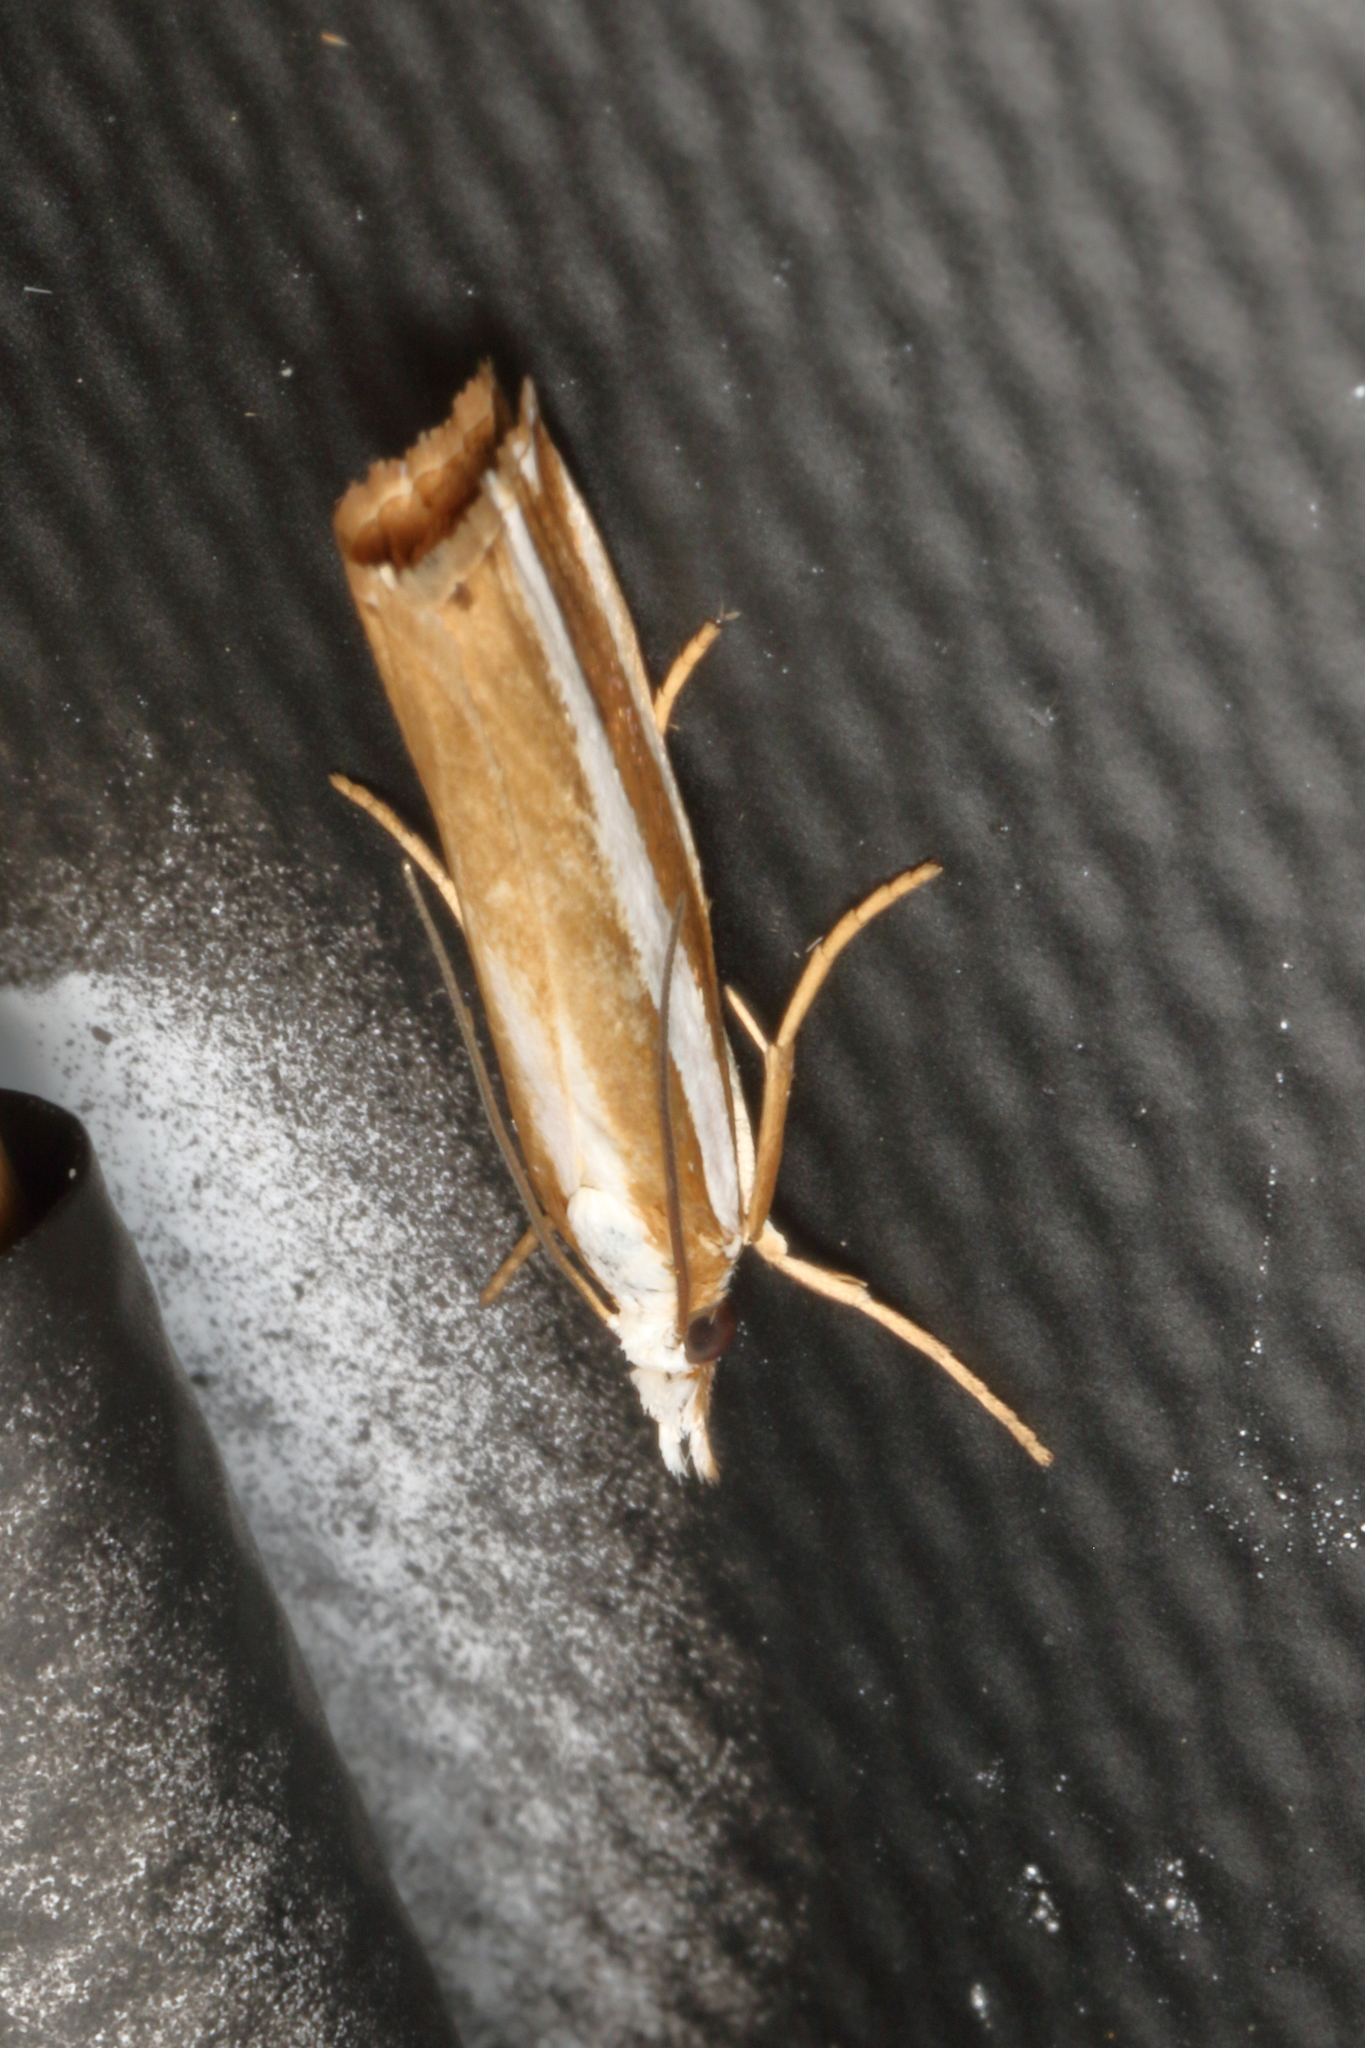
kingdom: Animalia
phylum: Arthropoda
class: Insecta
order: Lepidoptera
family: Crambidae
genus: Orocrambus
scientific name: Orocrambus apicellus
